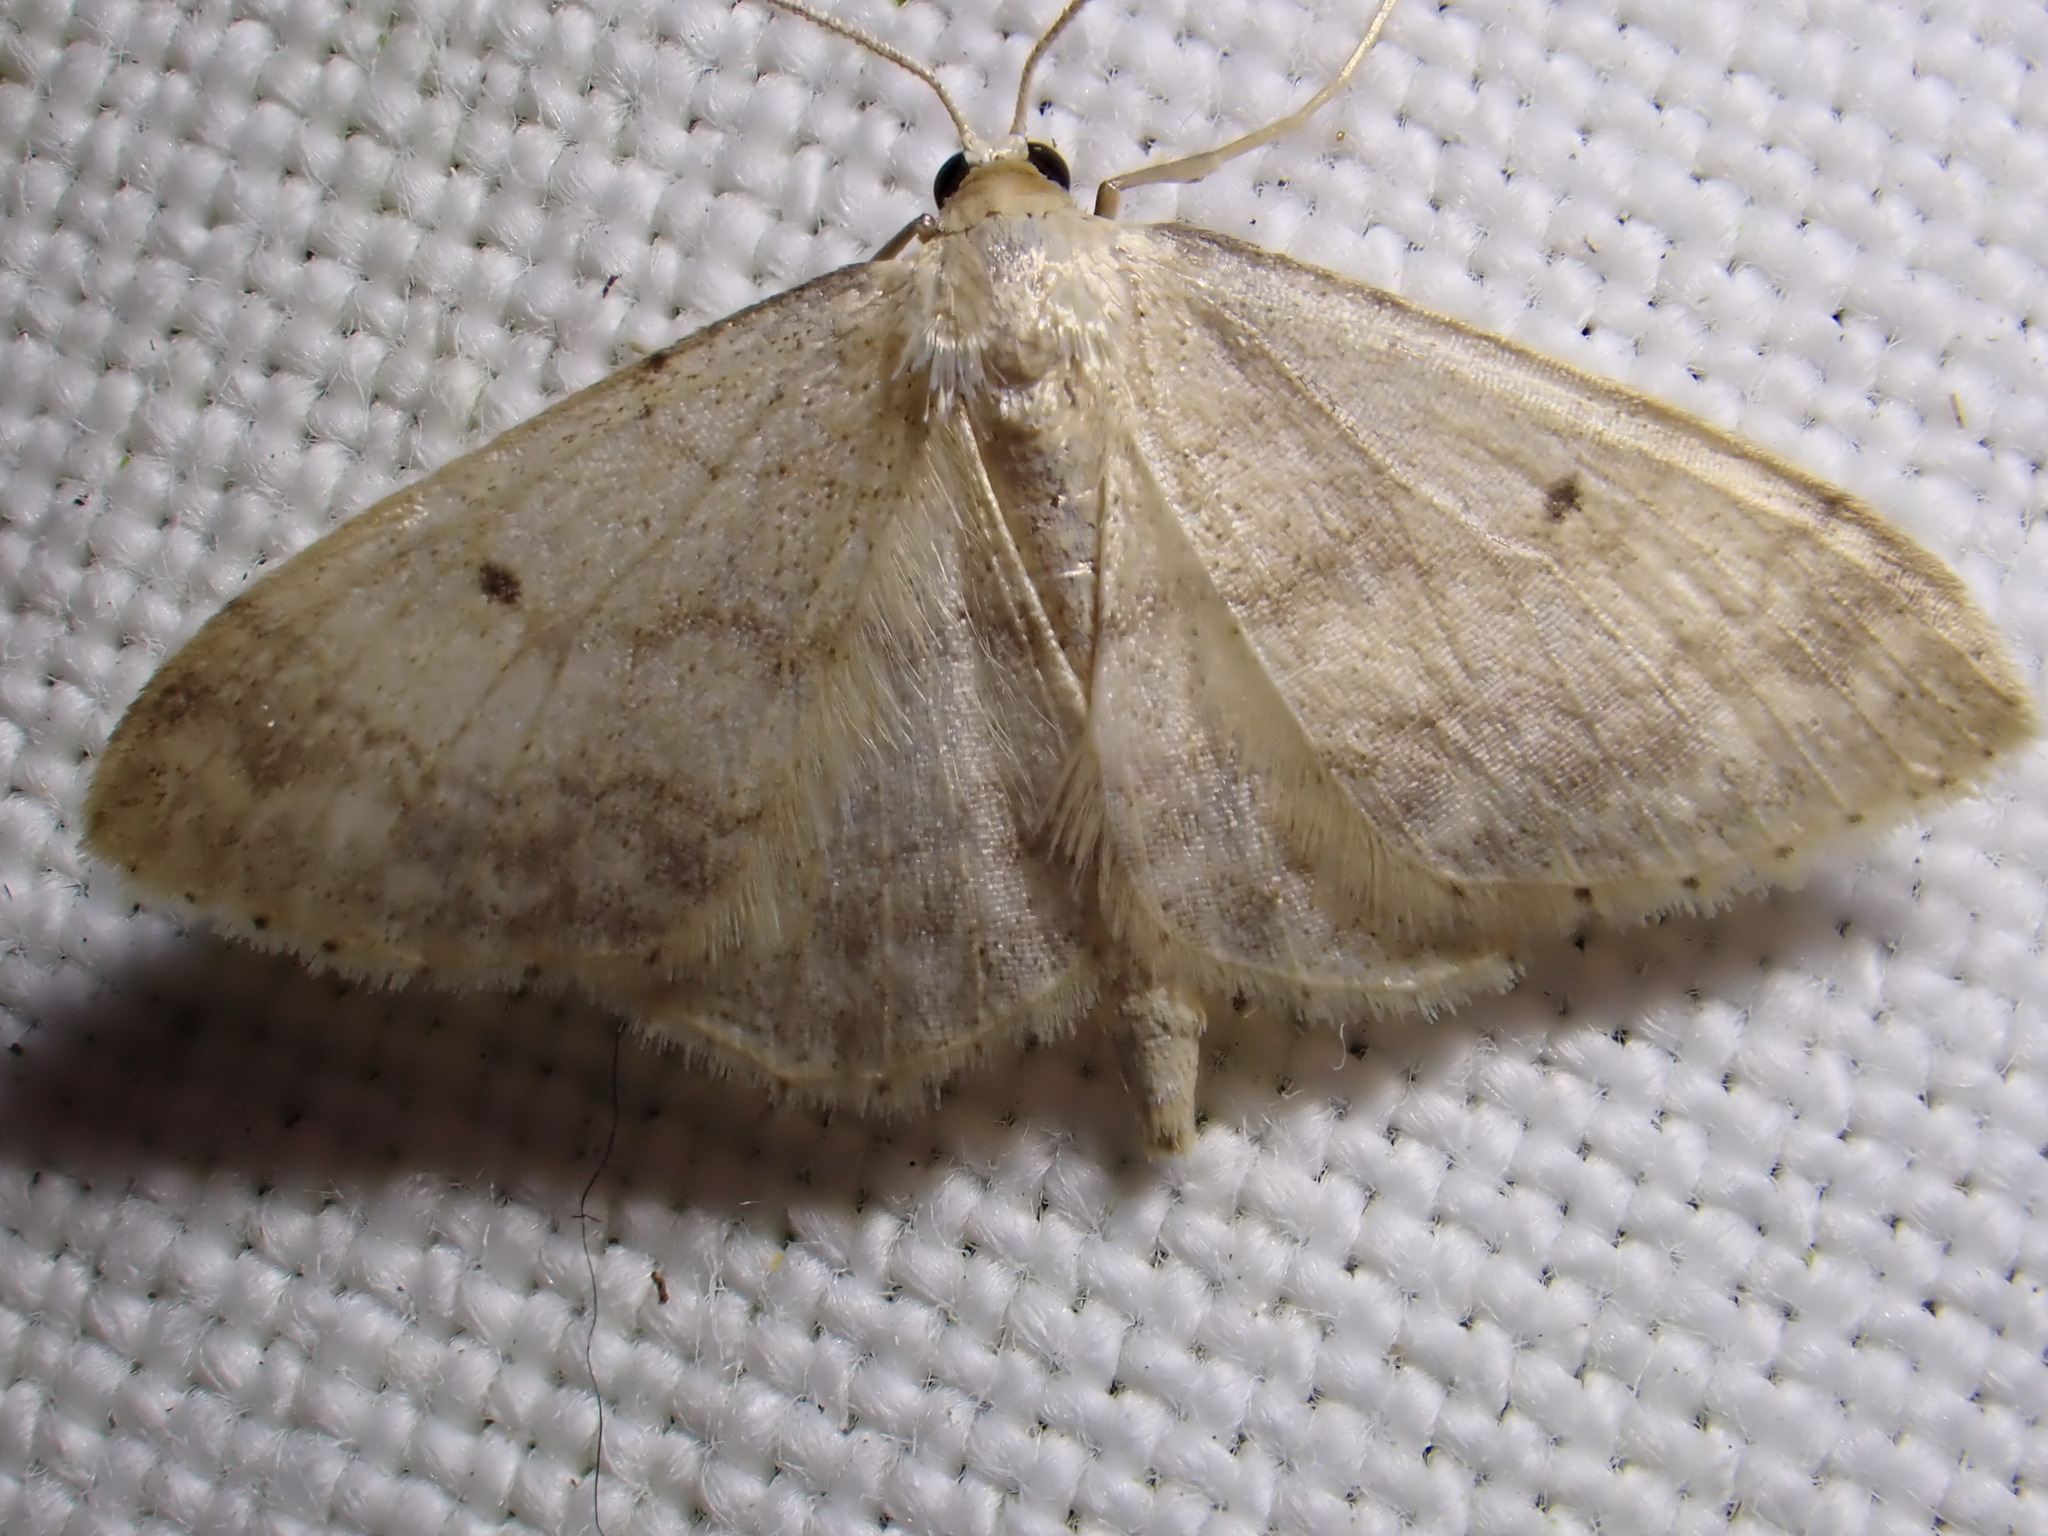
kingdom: Animalia
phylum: Arthropoda
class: Insecta
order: Lepidoptera
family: Geometridae
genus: Idaea
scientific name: Idaea biselata
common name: Small fan-footed wave
